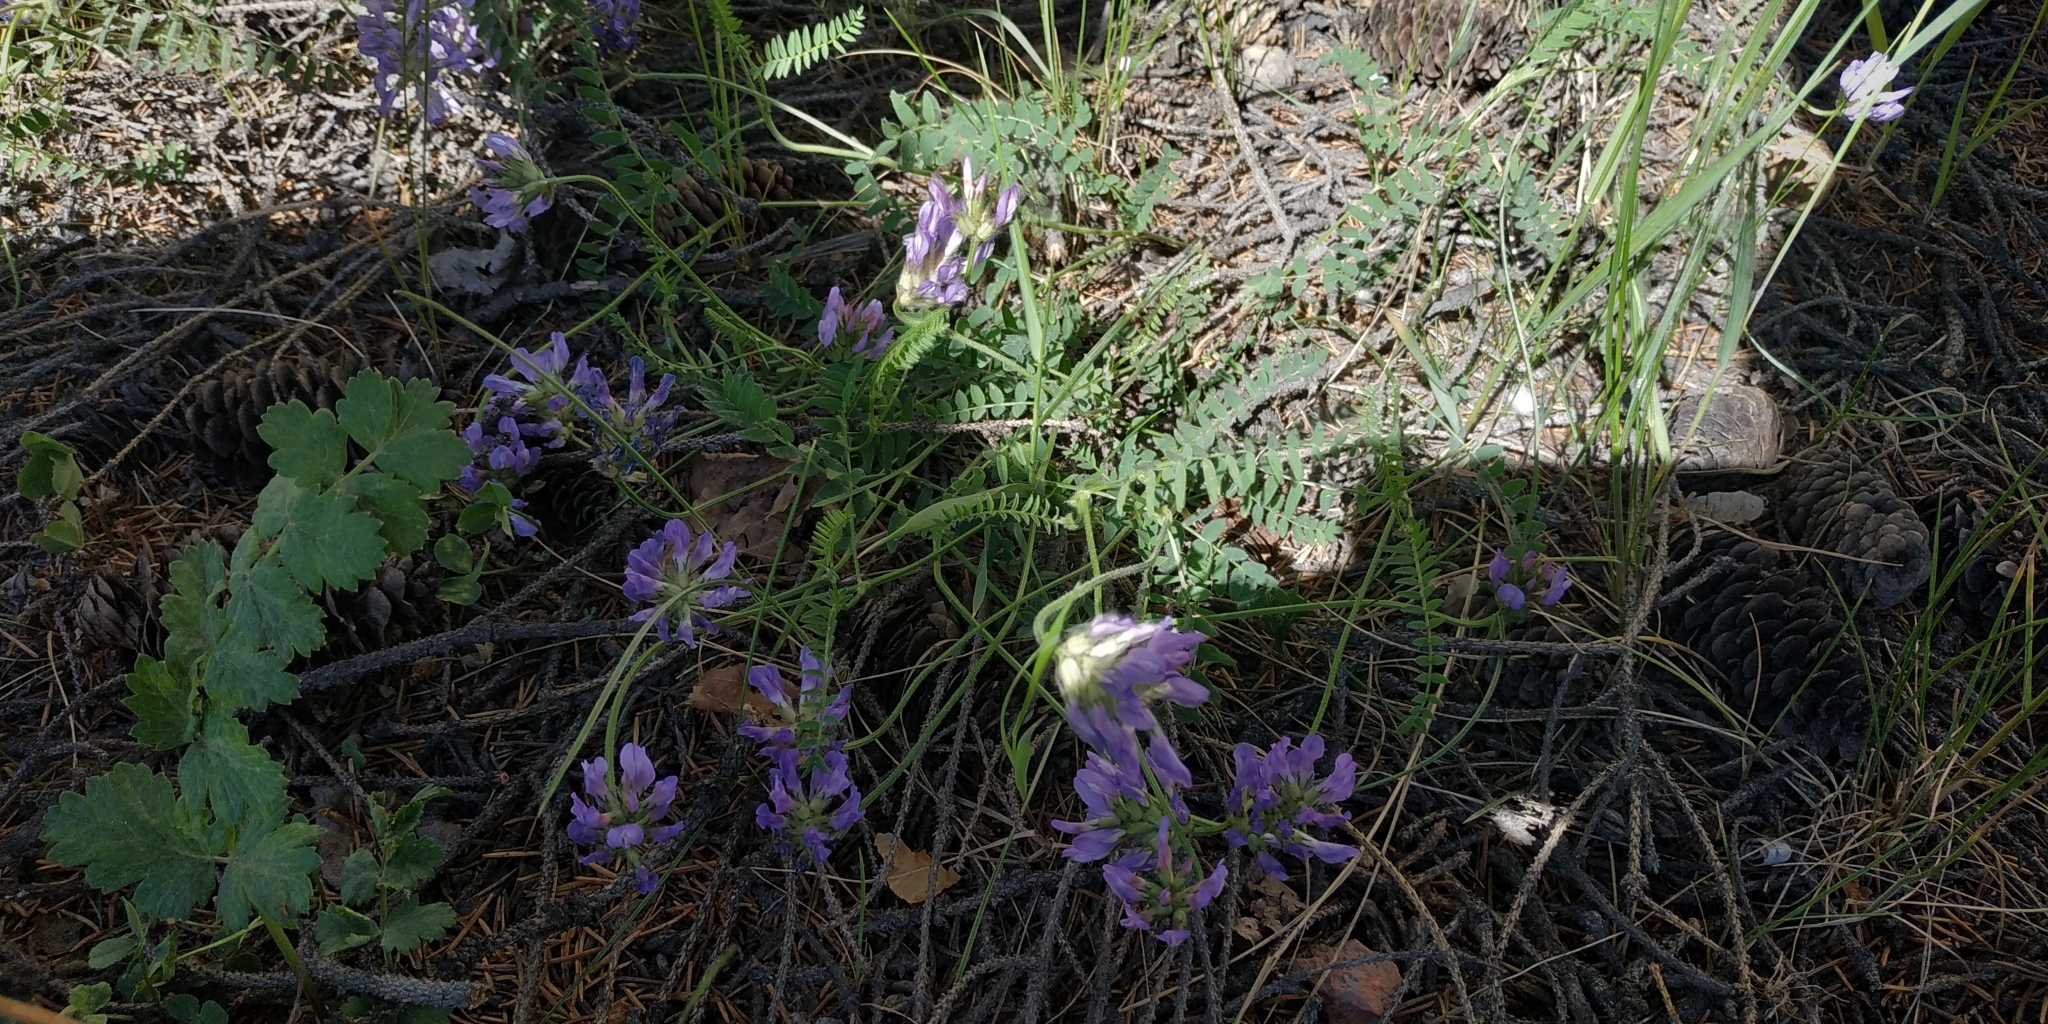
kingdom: Plantae
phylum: Tracheophyta
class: Magnoliopsida
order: Fabales
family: Fabaceae
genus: Astragalus
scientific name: Astragalus danicus
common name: Purple milk-vetch
